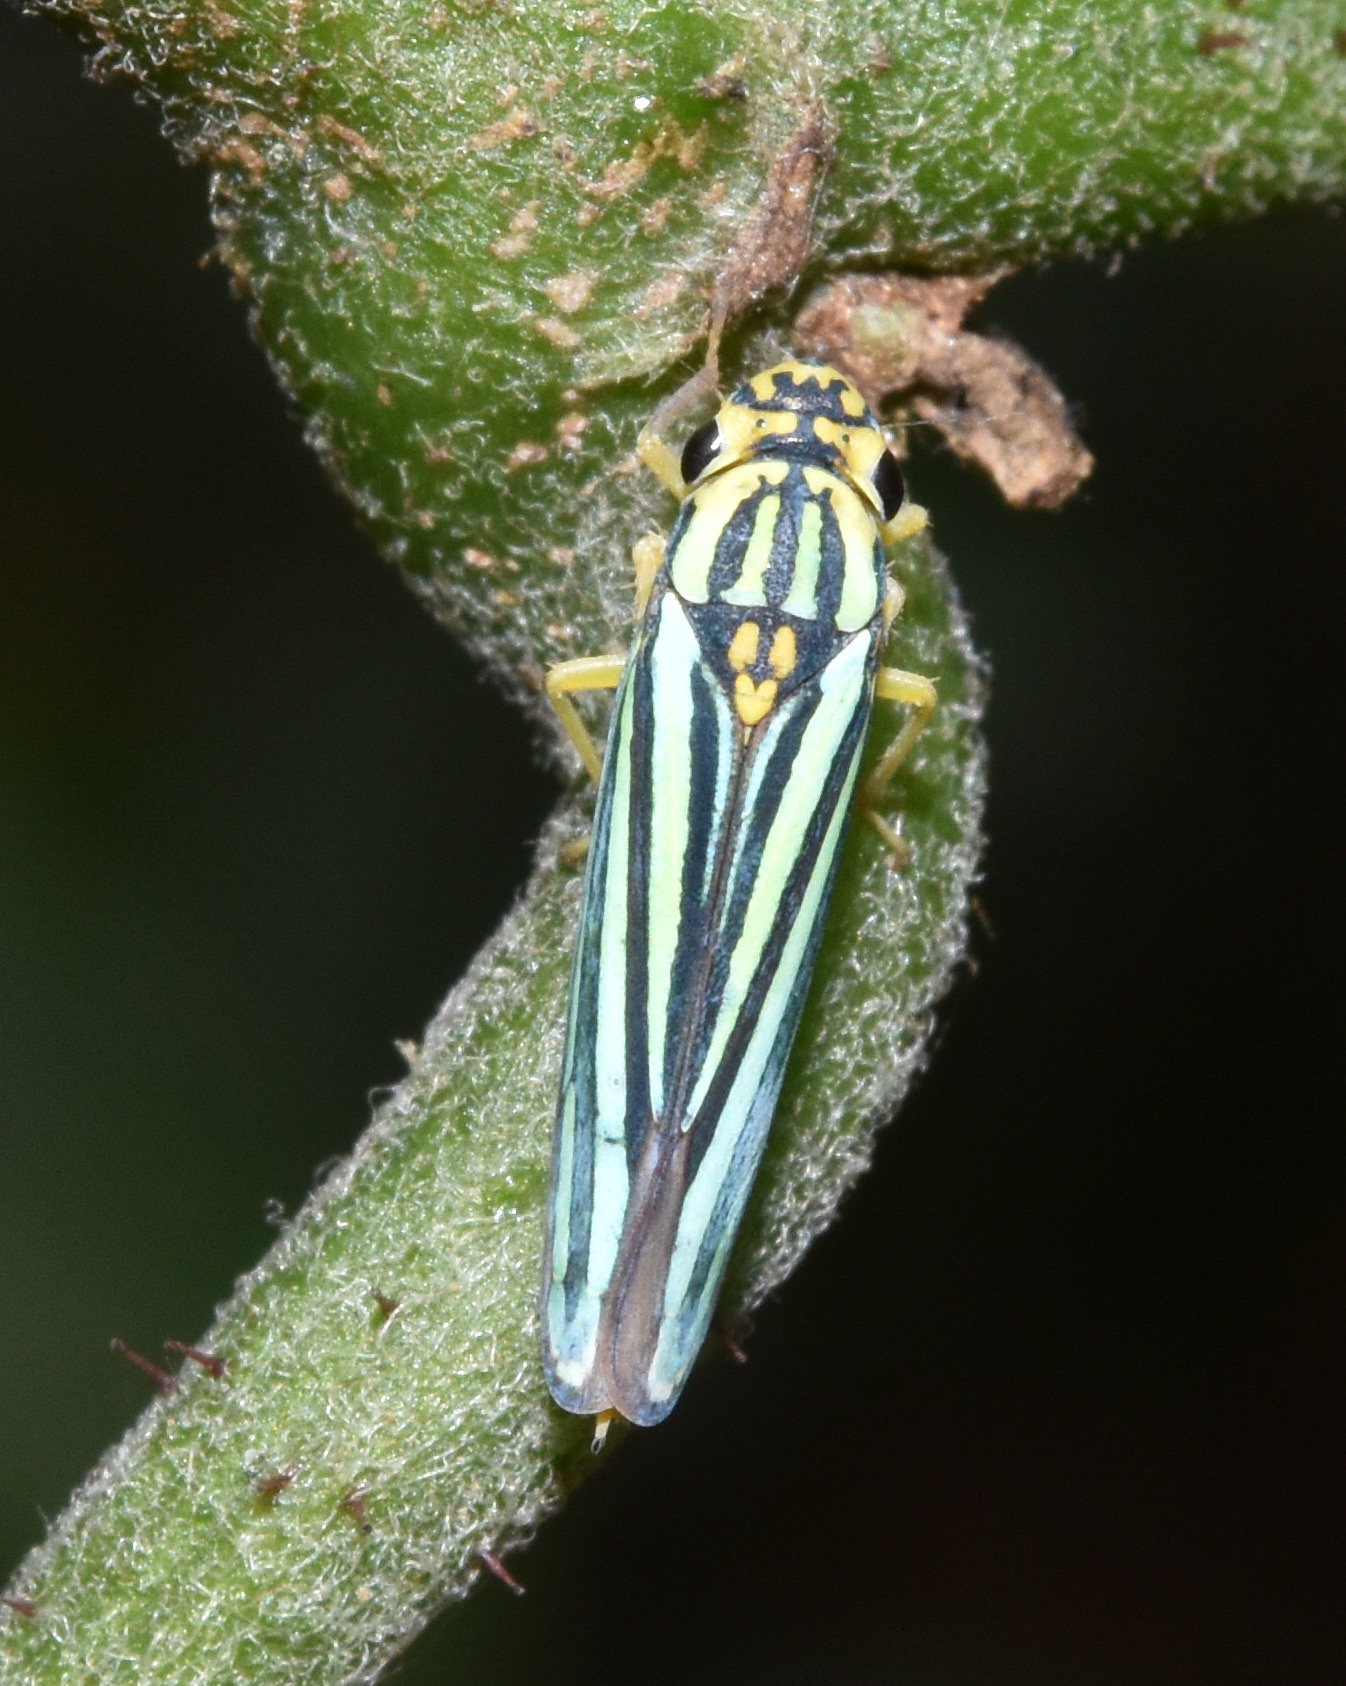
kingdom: Animalia
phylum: Arthropoda
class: Insecta
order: Hemiptera
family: Cicadellidae
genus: Tettigoniella
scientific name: Tettigoniella cosmopolita
